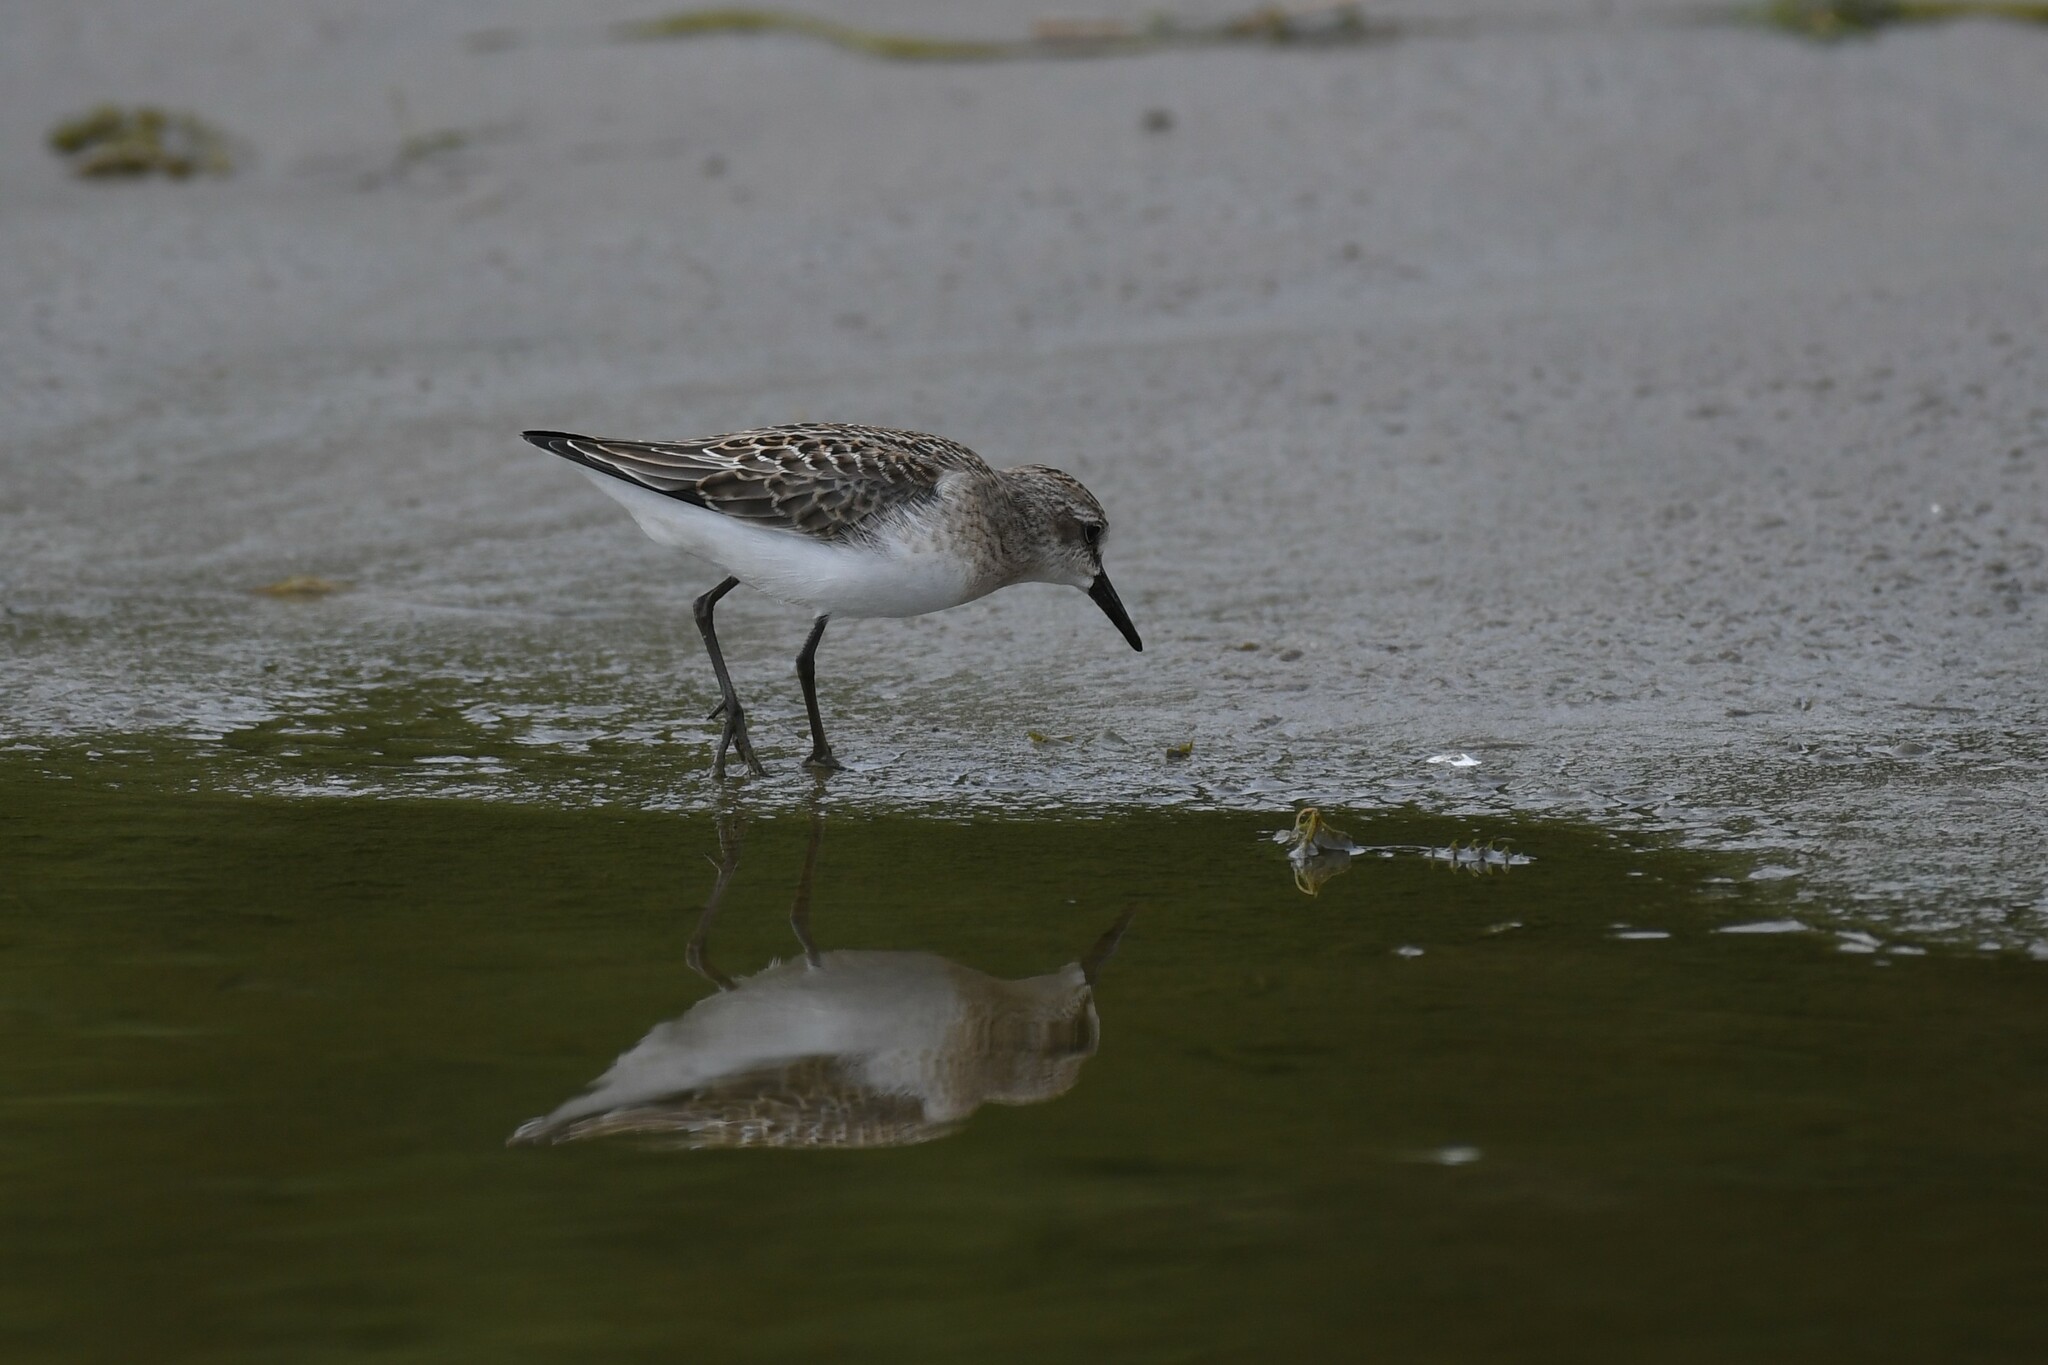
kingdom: Animalia
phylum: Chordata
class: Aves
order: Charadriiformes
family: Scolopacidae
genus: Calidris
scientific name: Calidris pusilla
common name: Semipalmated sandpiper
